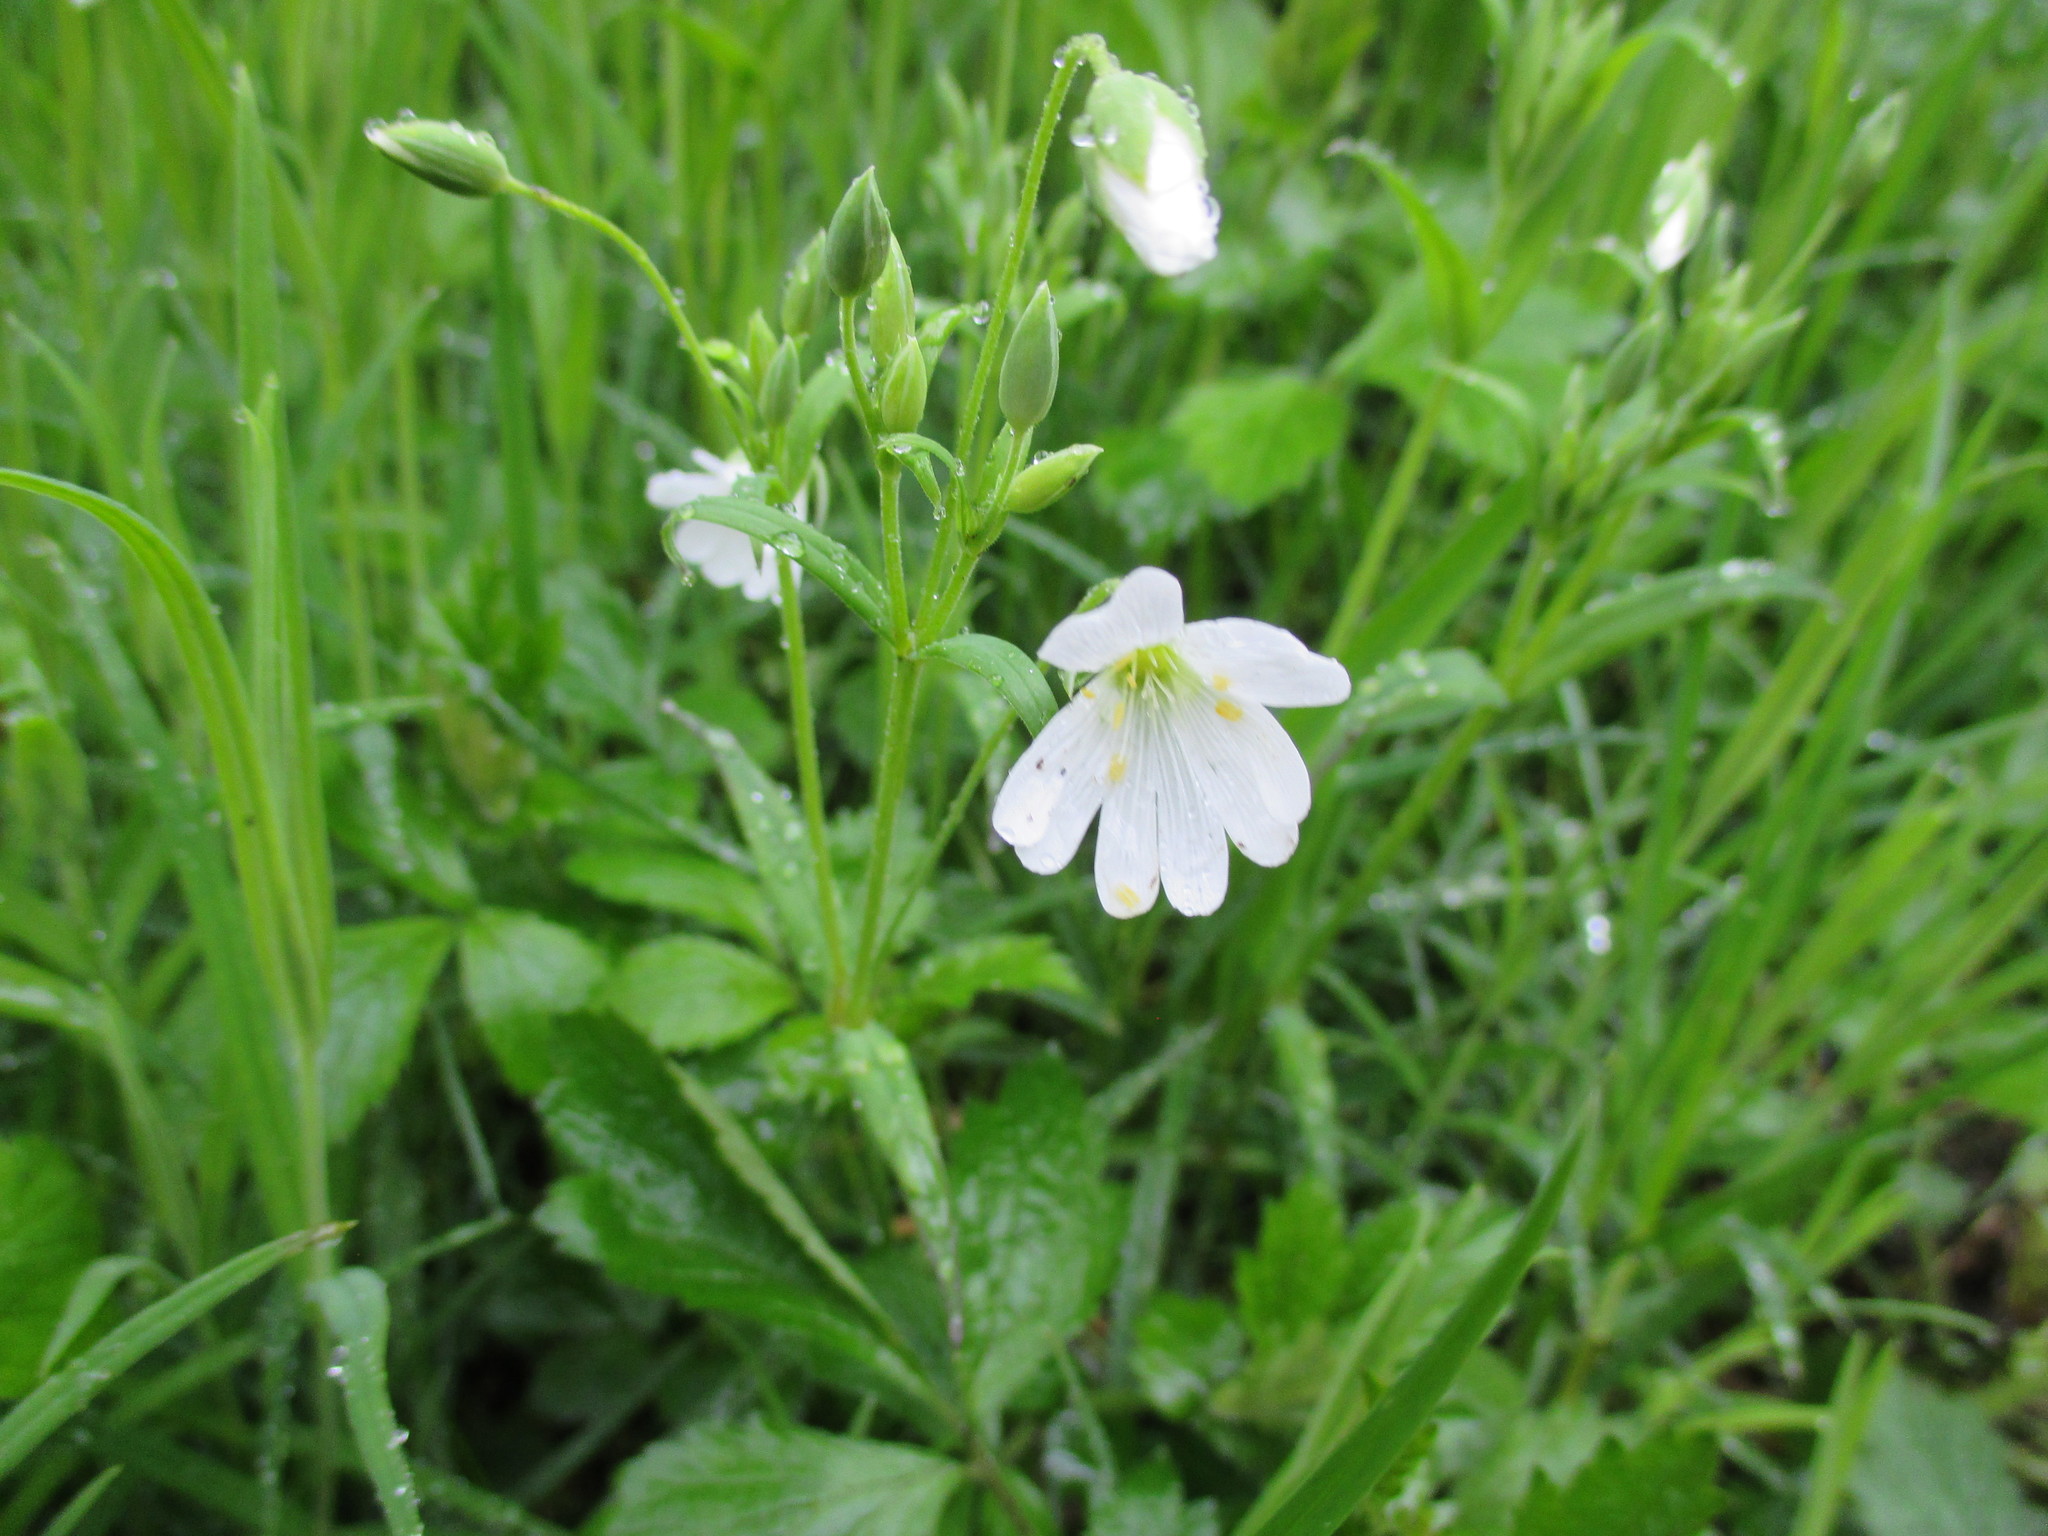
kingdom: Plantae
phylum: Tracheophyta
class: Magnoliopsida
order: Caryophyllales
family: Caryophyllaceae
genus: Rabelera
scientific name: Rabelera holostea
